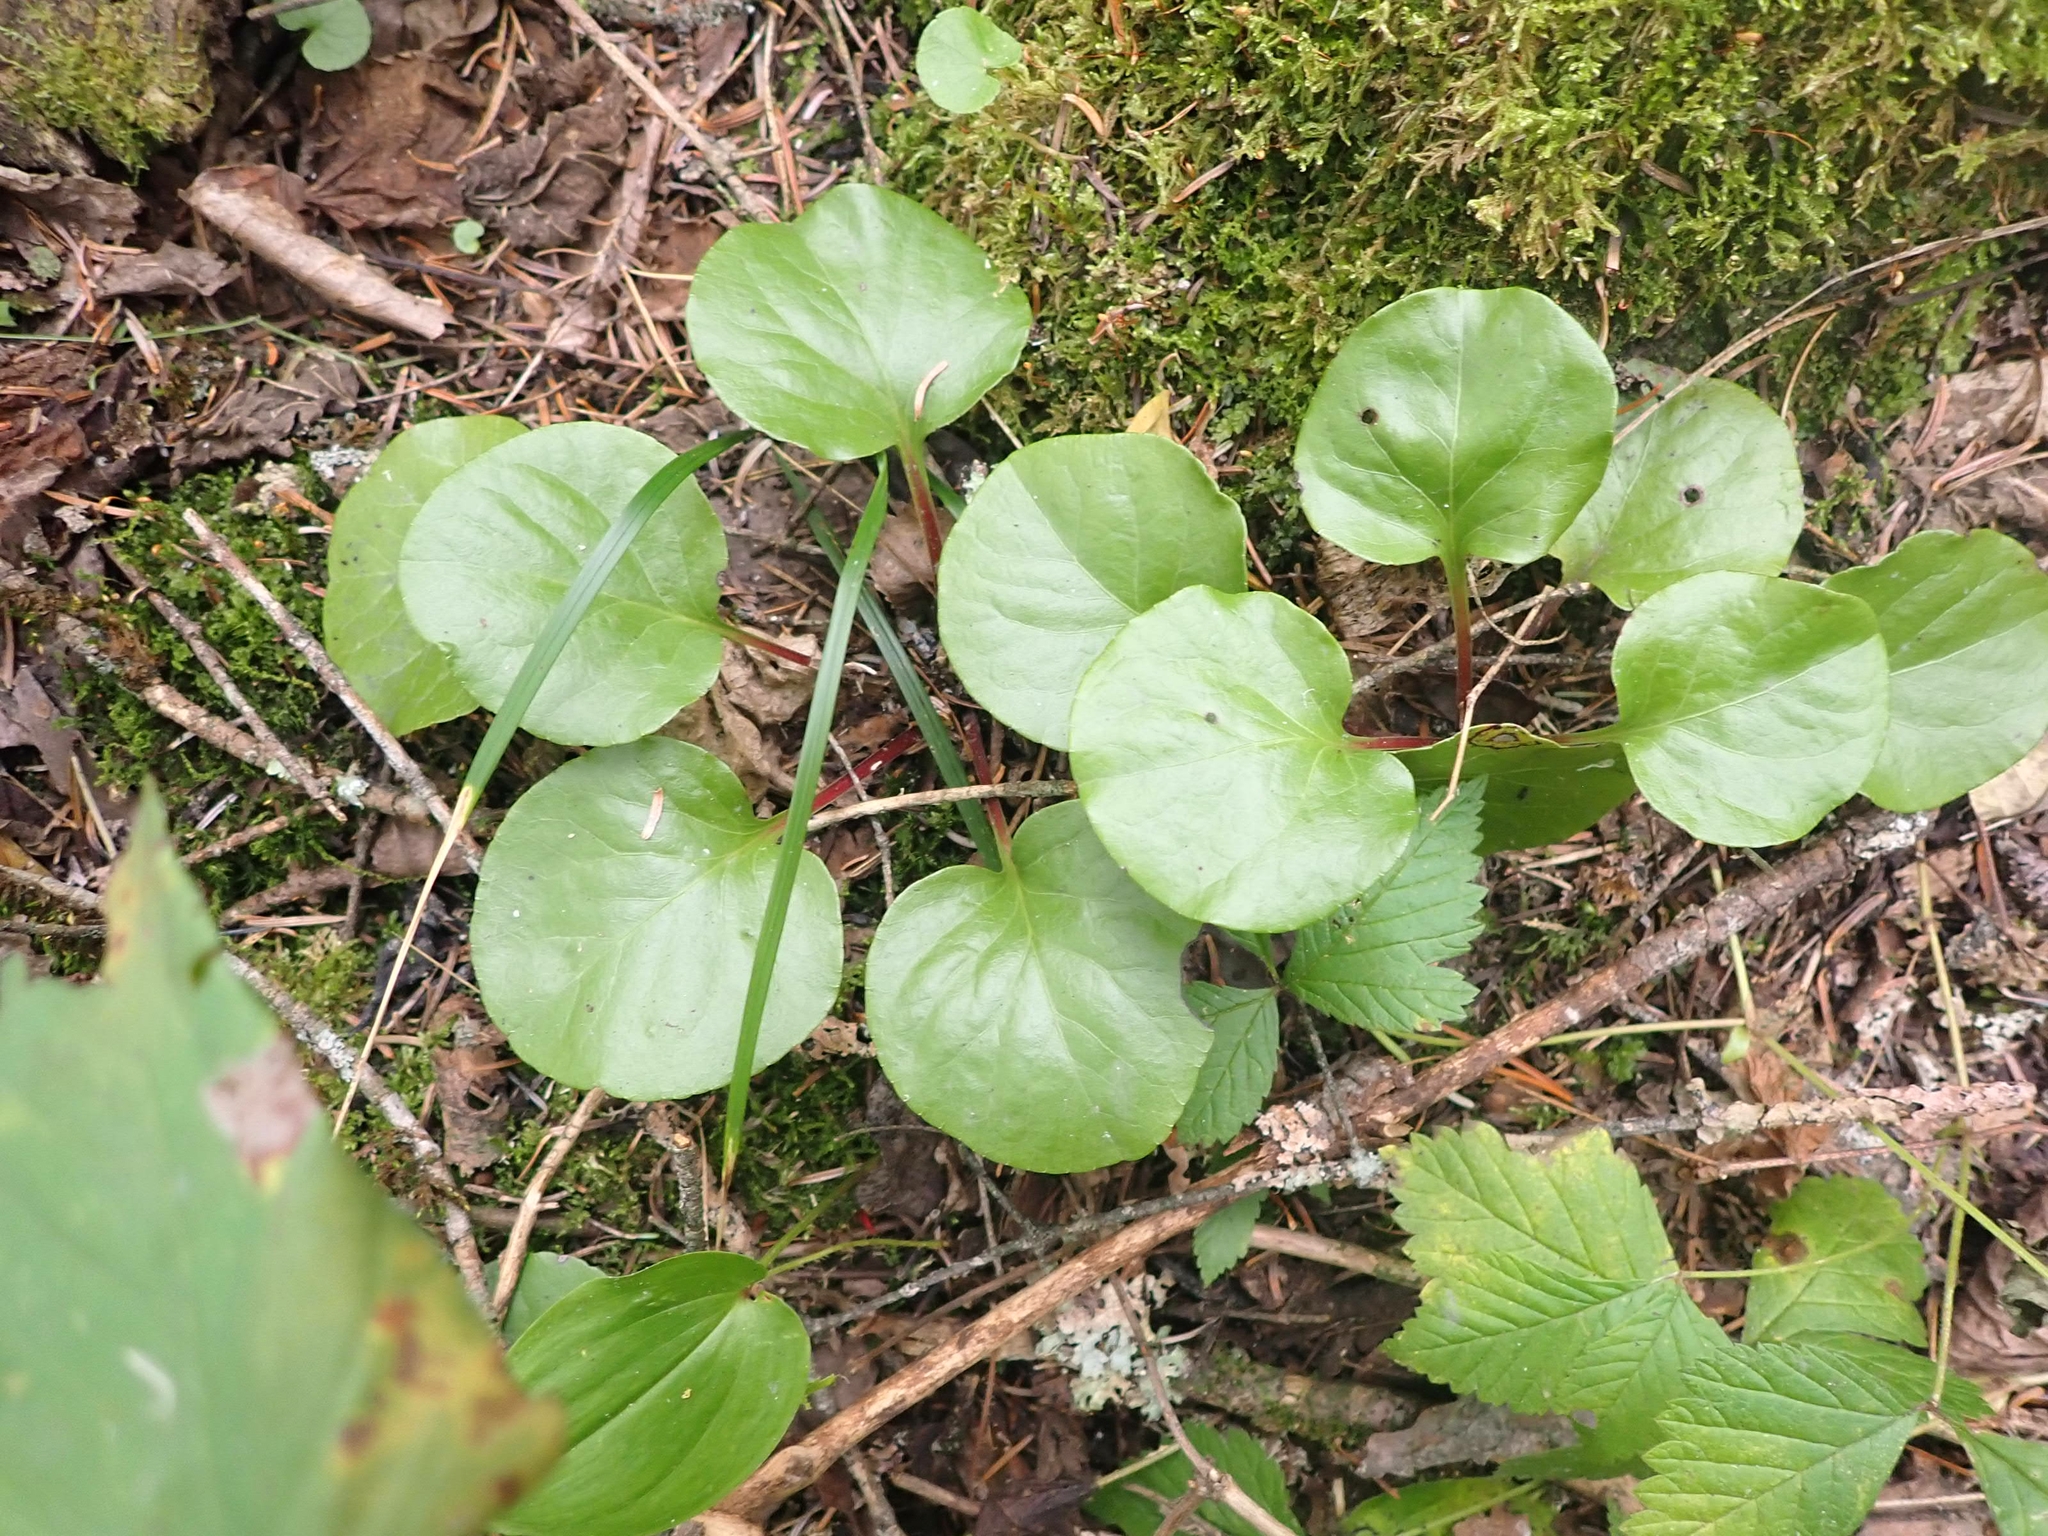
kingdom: Plantae
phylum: Tracheophyta
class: Magnoliopsida
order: Ericales
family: Ericaceae
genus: Pyrola
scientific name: Pyrola asarifolia
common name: Bog wintergreen
